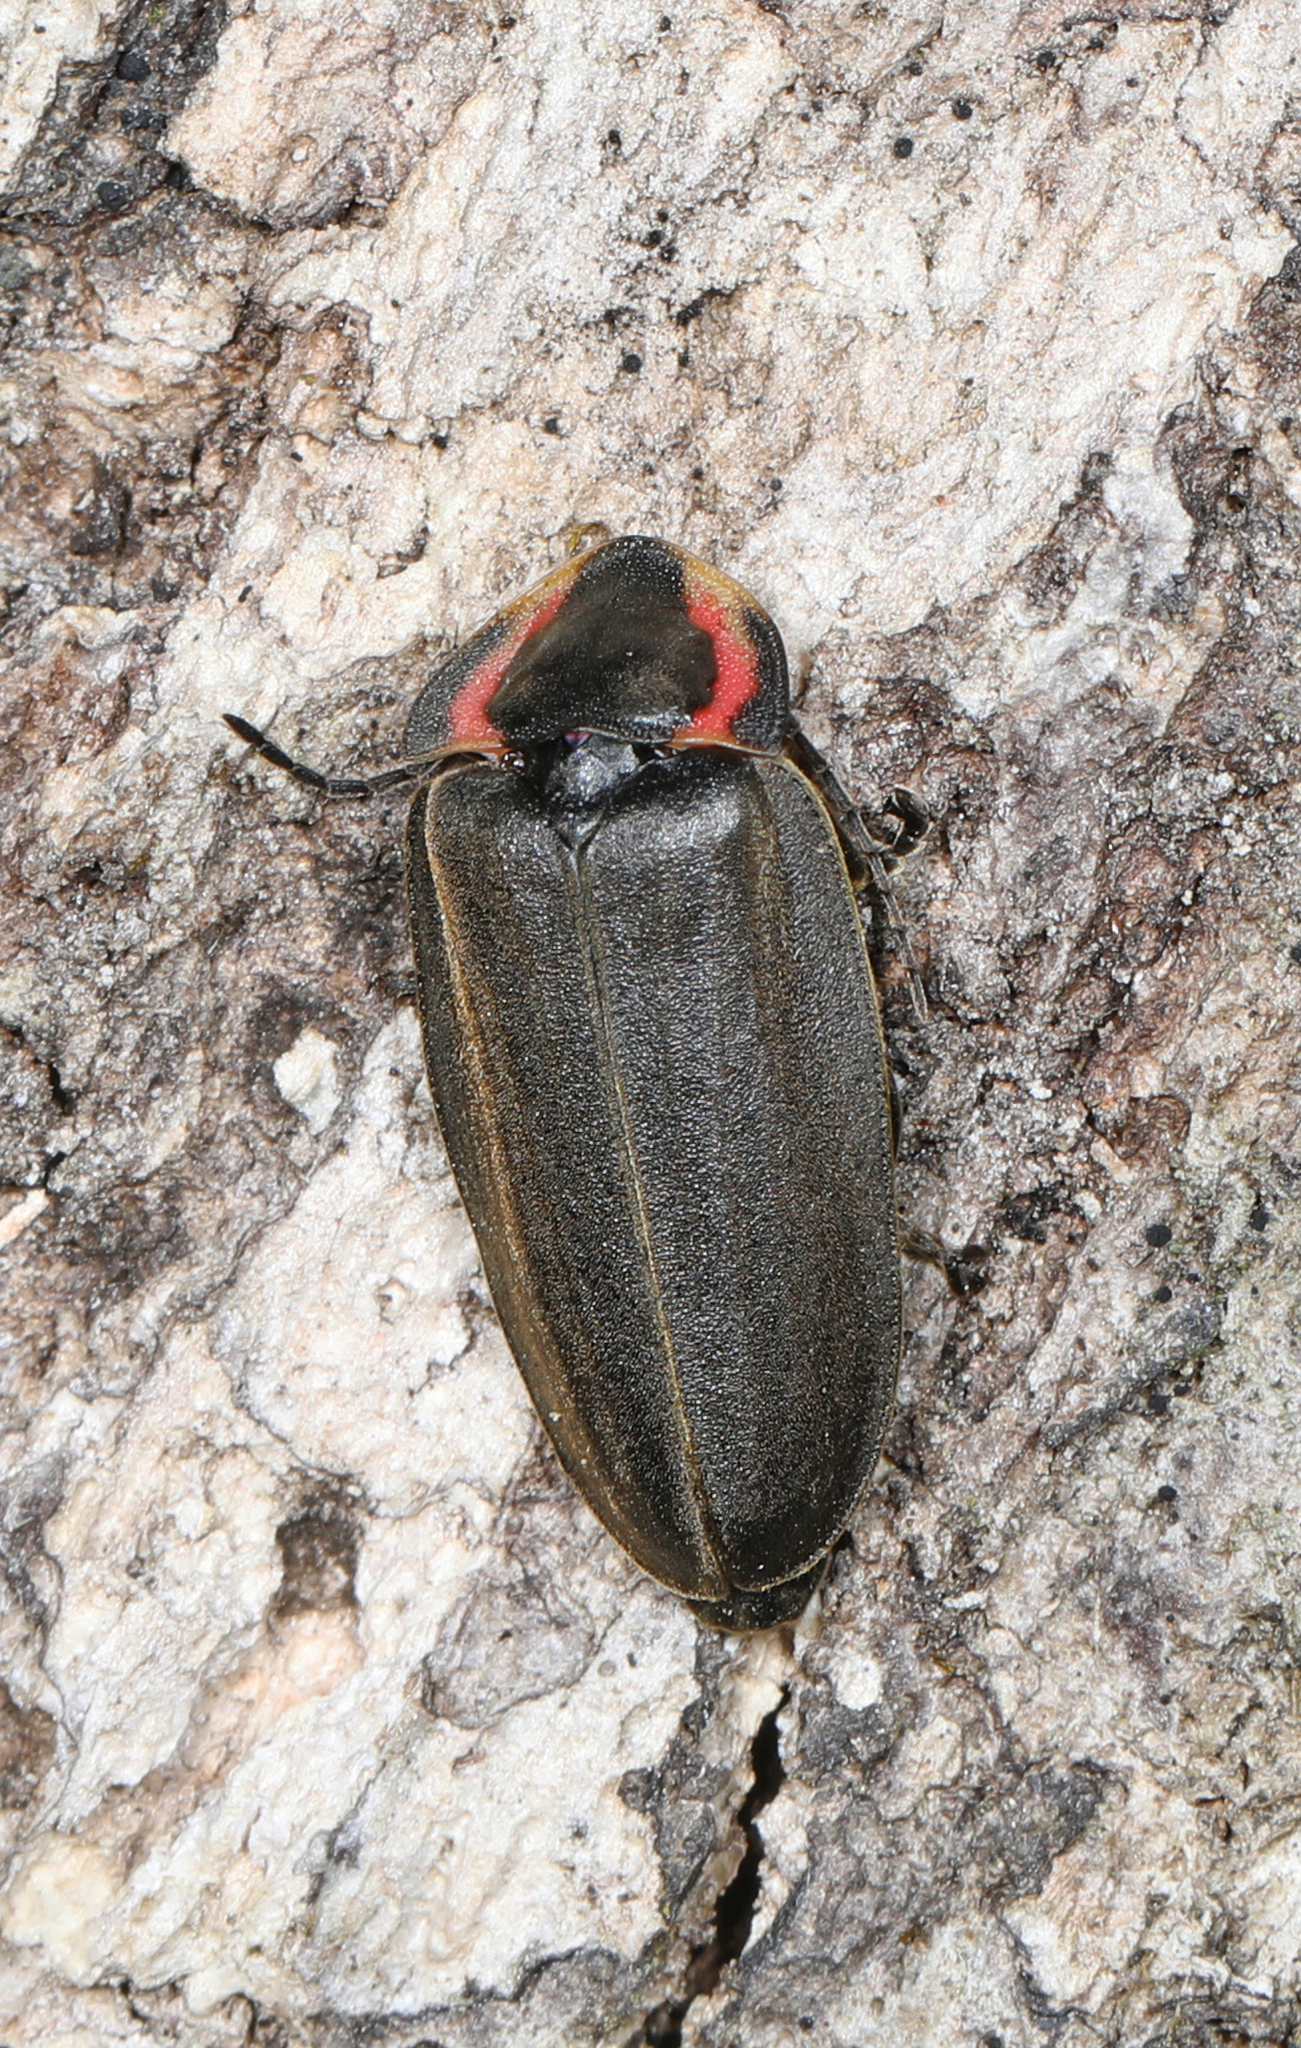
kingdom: Animalia
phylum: Arthropoda
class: Insecta
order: Coleoptera
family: Lampyridae
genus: Photinus
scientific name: Photinus corrusca
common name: Winter firefly
